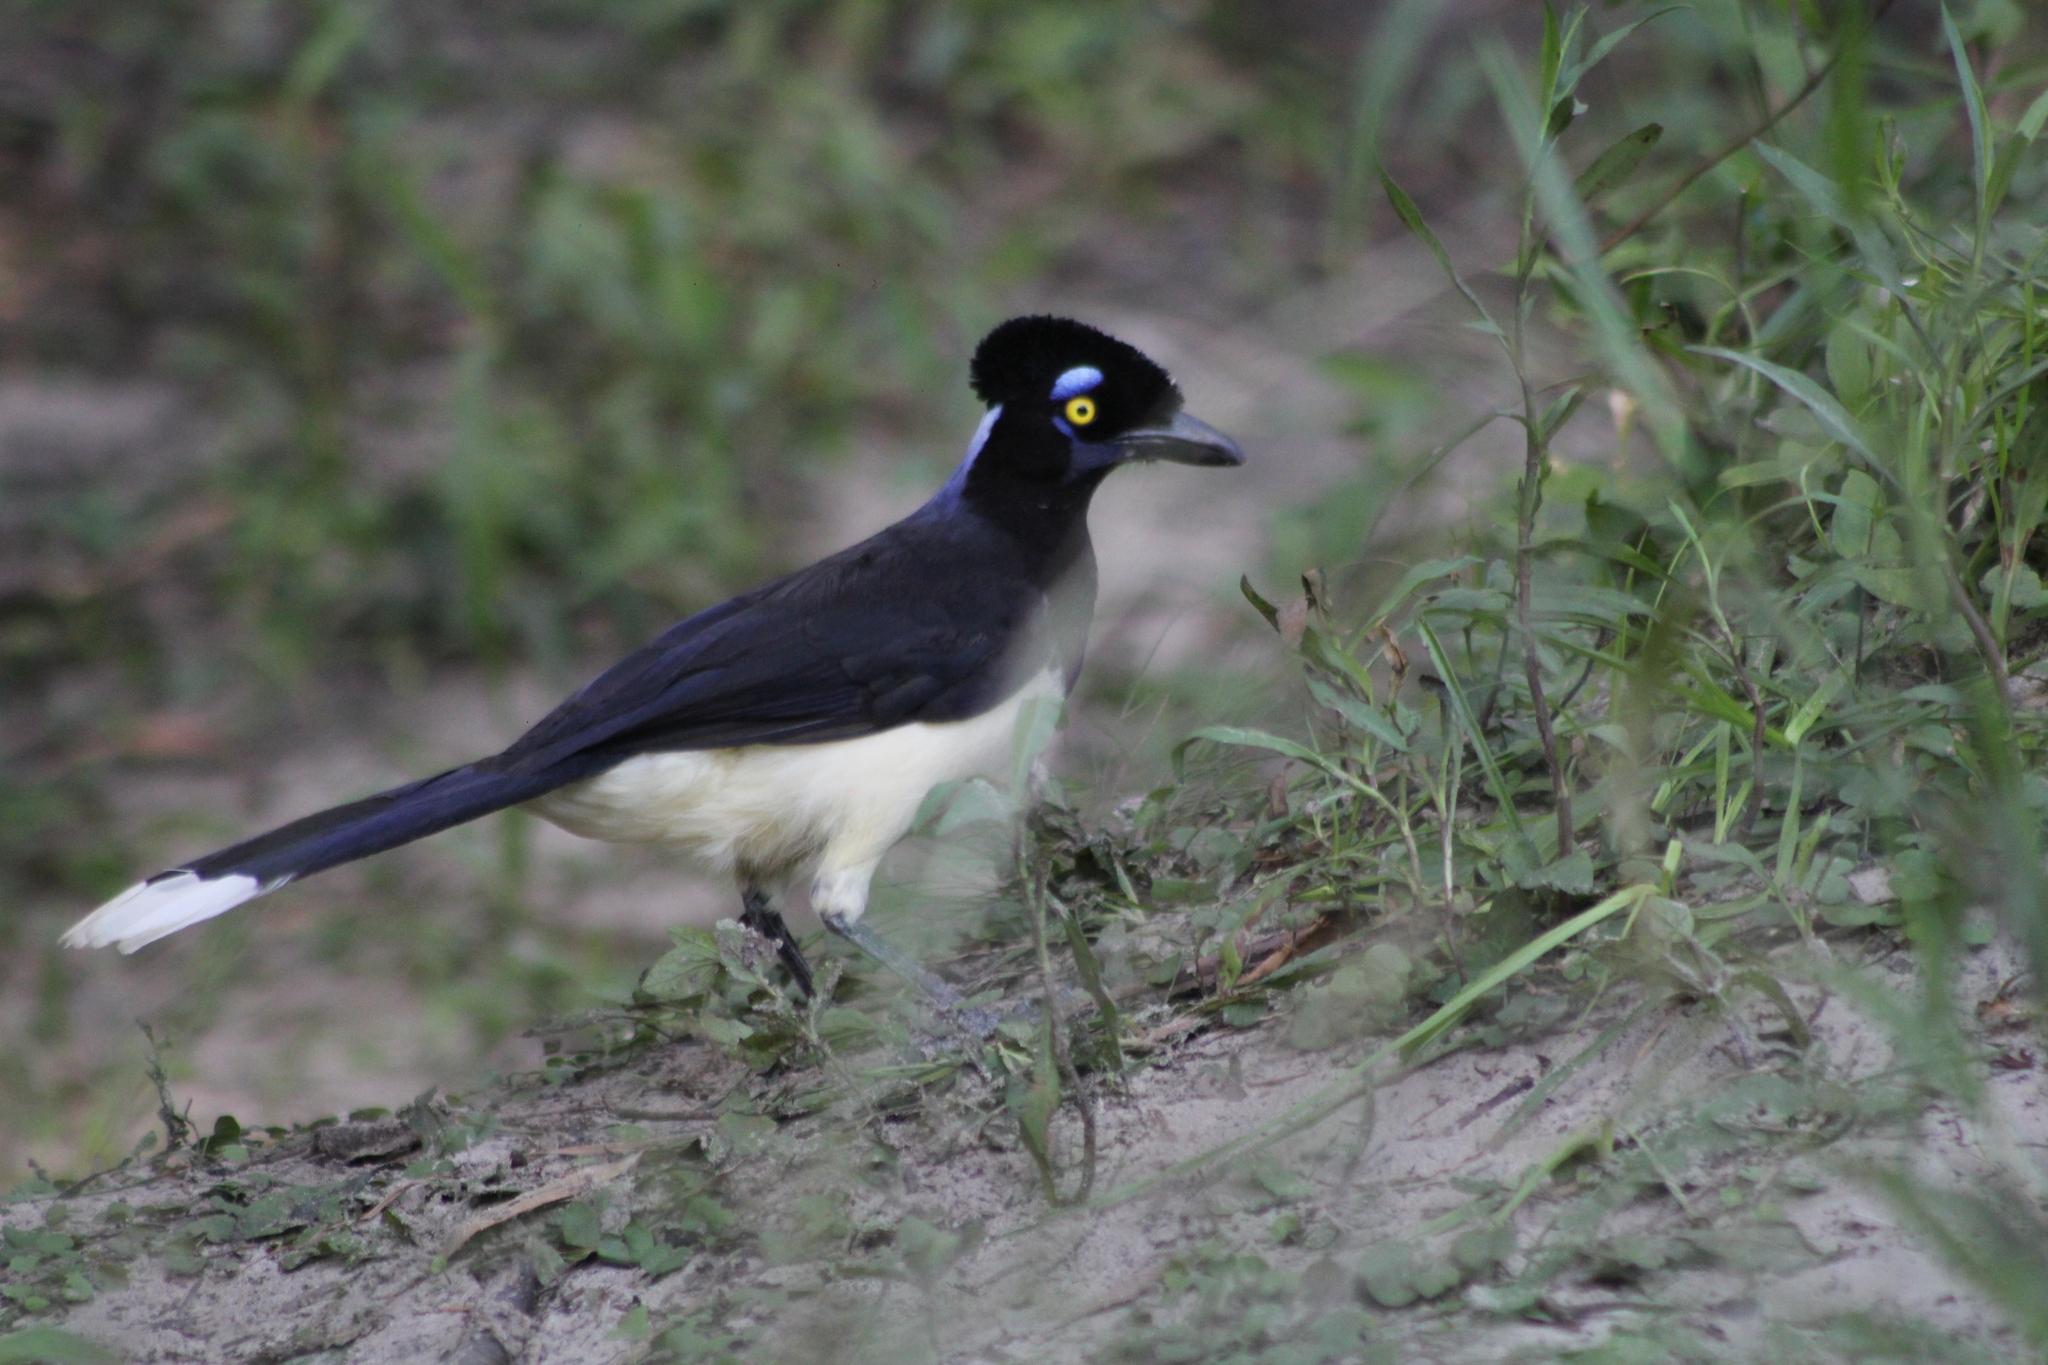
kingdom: Animalia
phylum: Chordata
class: Aves
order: Passeriformes
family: Corvidae
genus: Cyanocorax
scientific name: Cyanocorax chrysops
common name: Plush-crested jay
